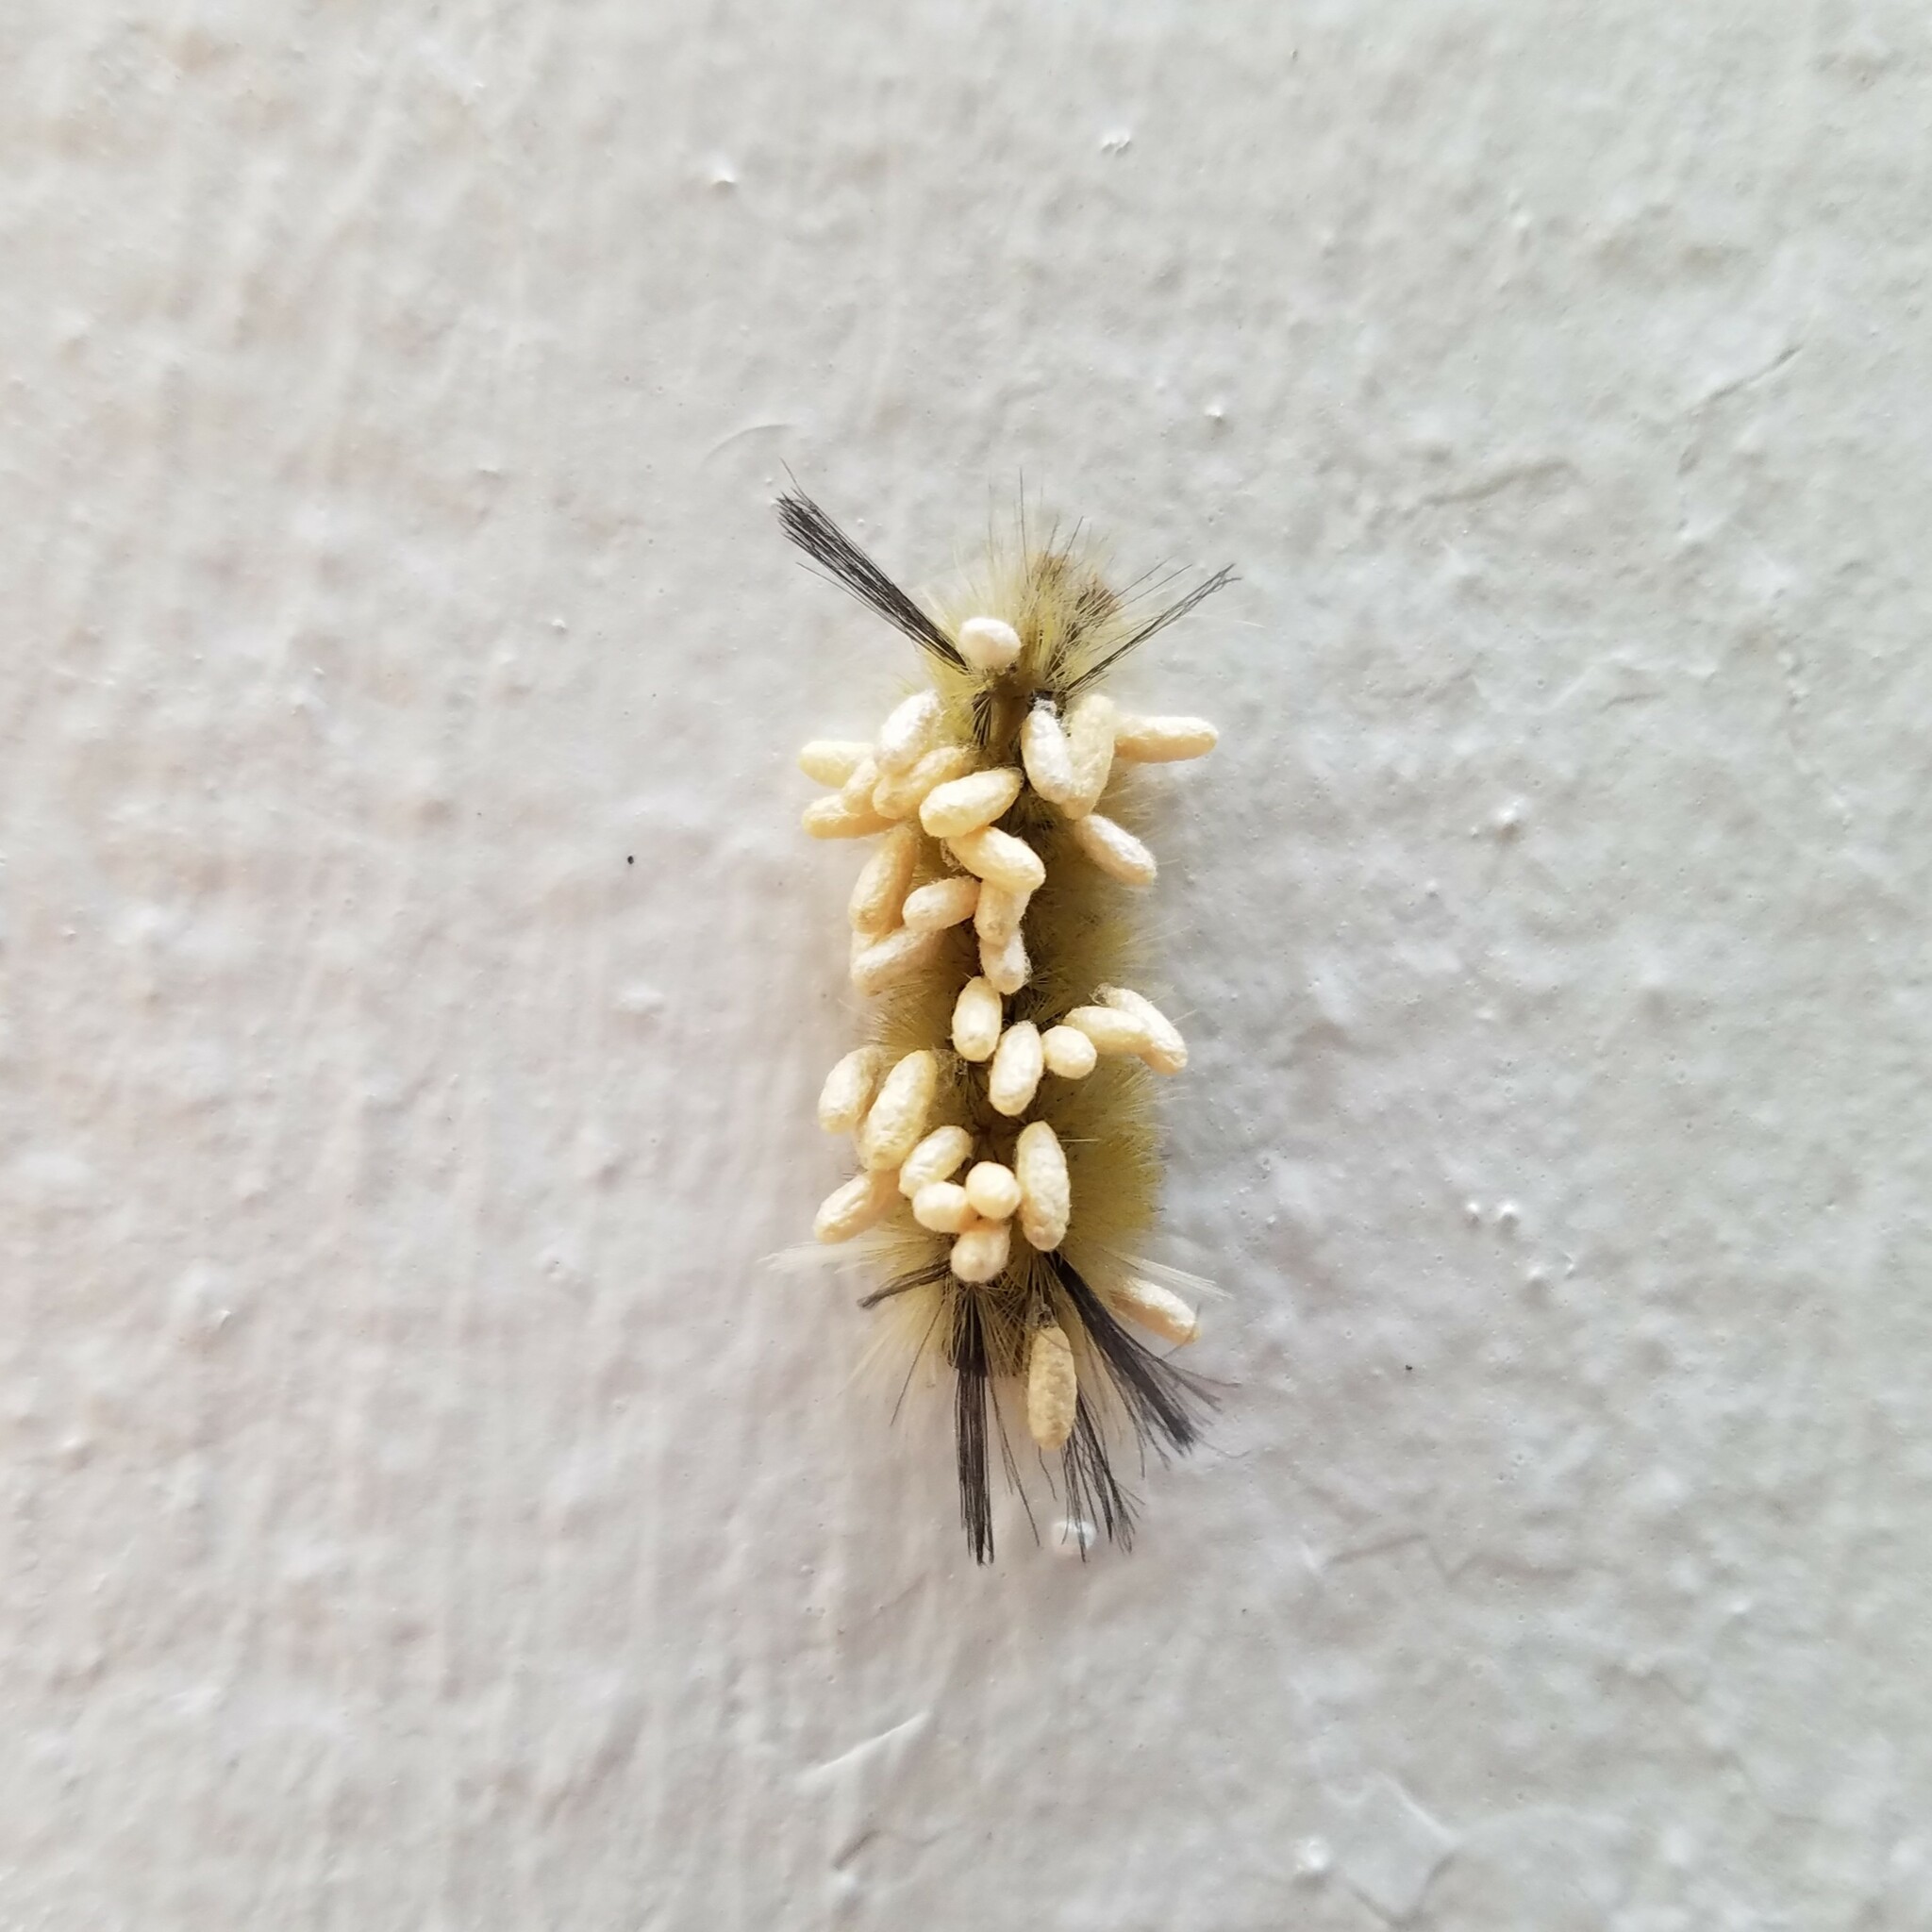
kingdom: Animalia
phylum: Arthropoda
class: Insecta
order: Lepidoptera
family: Erebidae
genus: Halysidota
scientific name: Halysidota tessellaris
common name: Banded tussock moth
